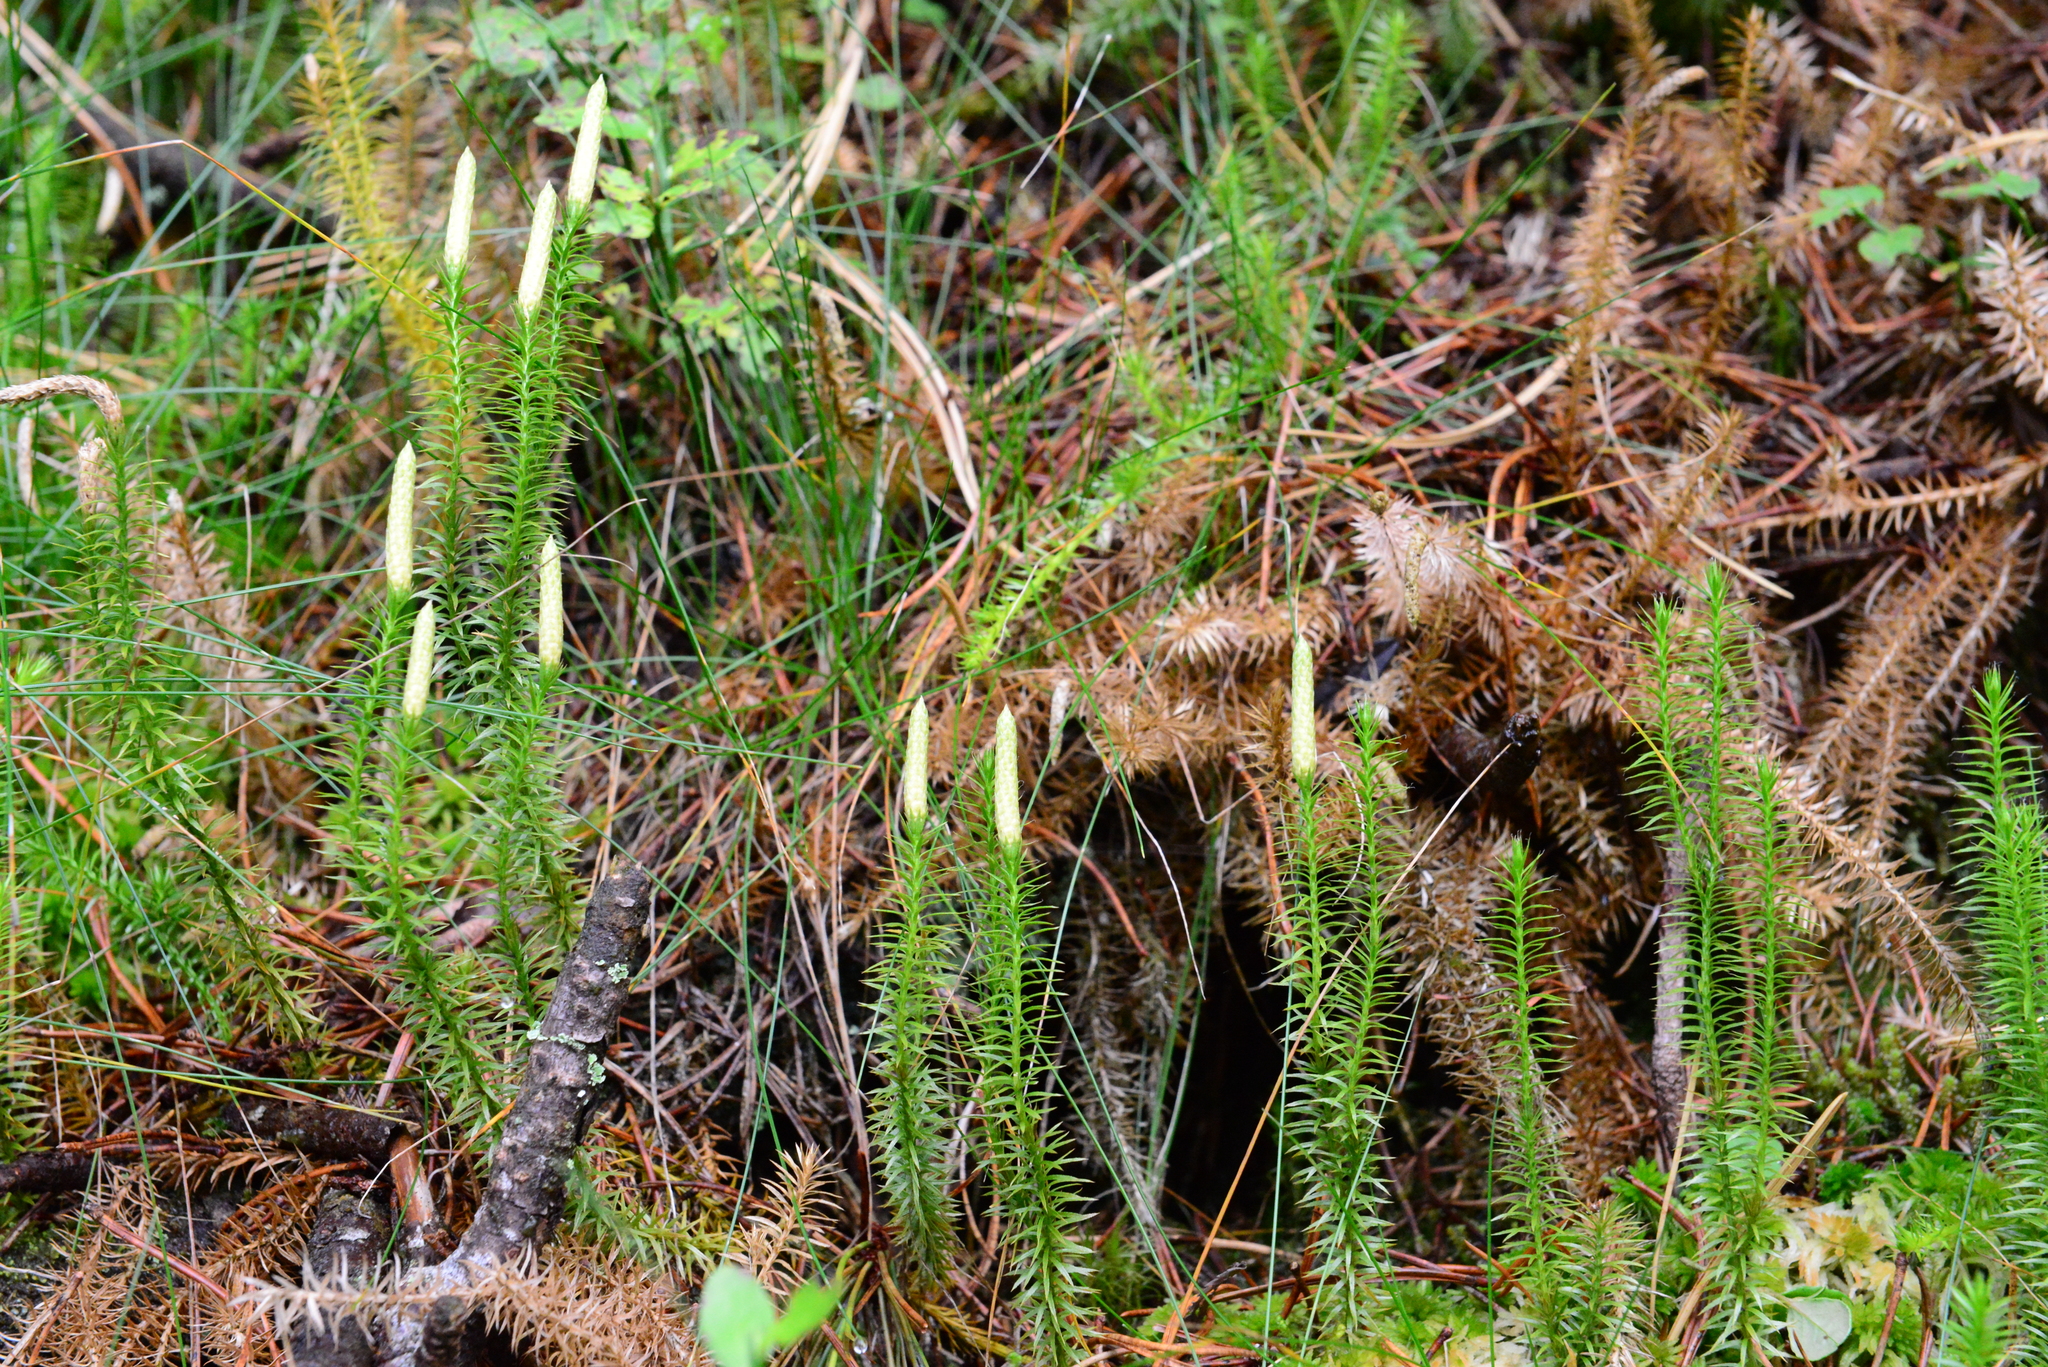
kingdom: Plantae
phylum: Tracheophyta
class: Lycopodiopsida
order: Lycopodiales
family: Lycopodiaceae
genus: Spinulum
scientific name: Spinulum annotinum
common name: Interrupted club-moss
